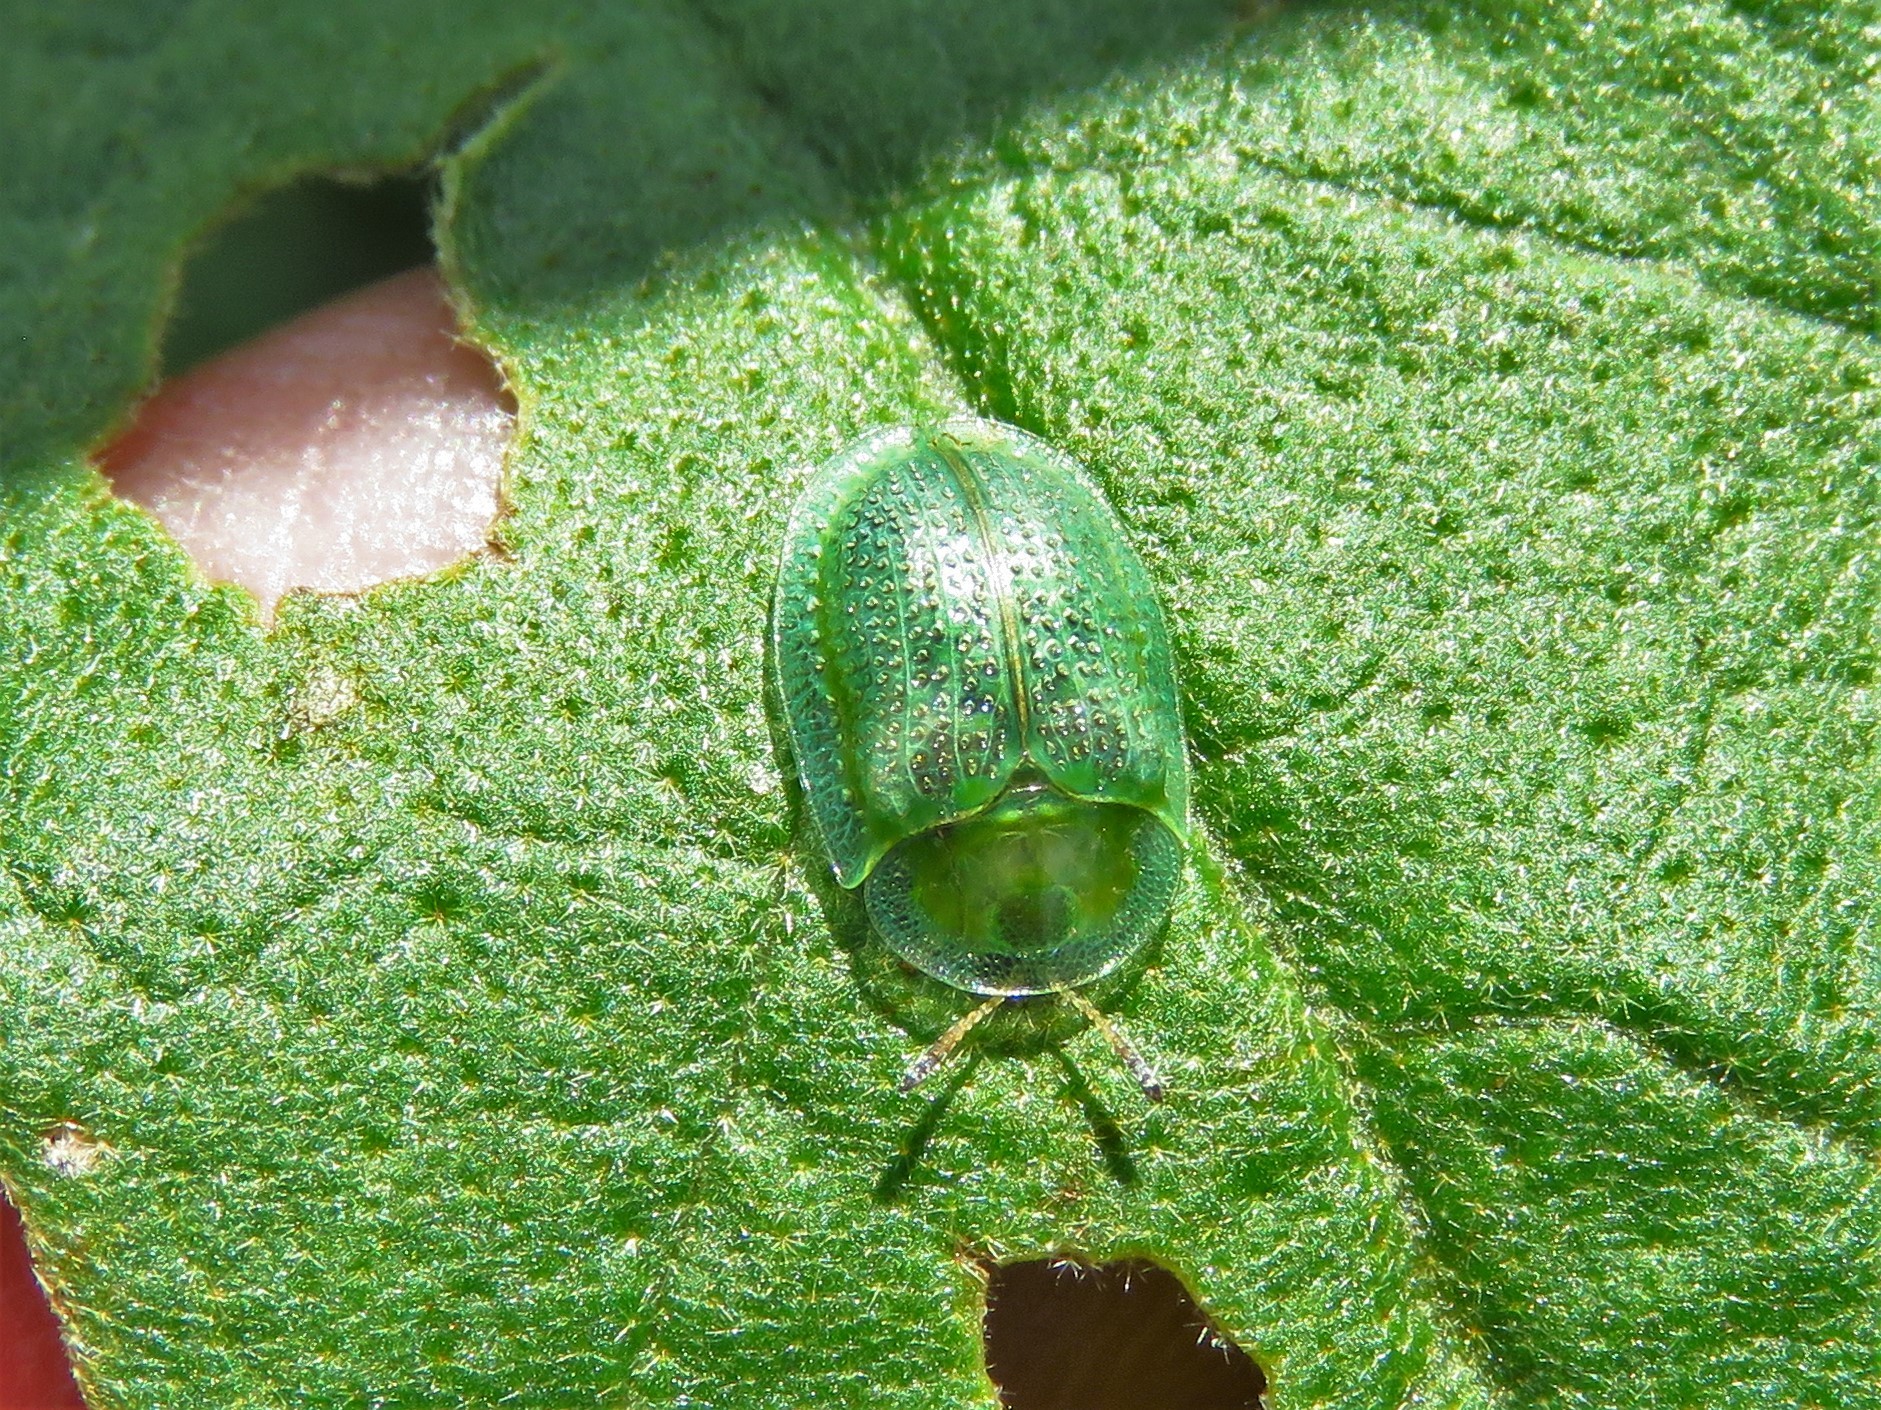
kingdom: Animalia
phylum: Arthropoda
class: Insecta
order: Coleoptera
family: Chrysomelidae
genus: Gratiana
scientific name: Gratiana pallidula
